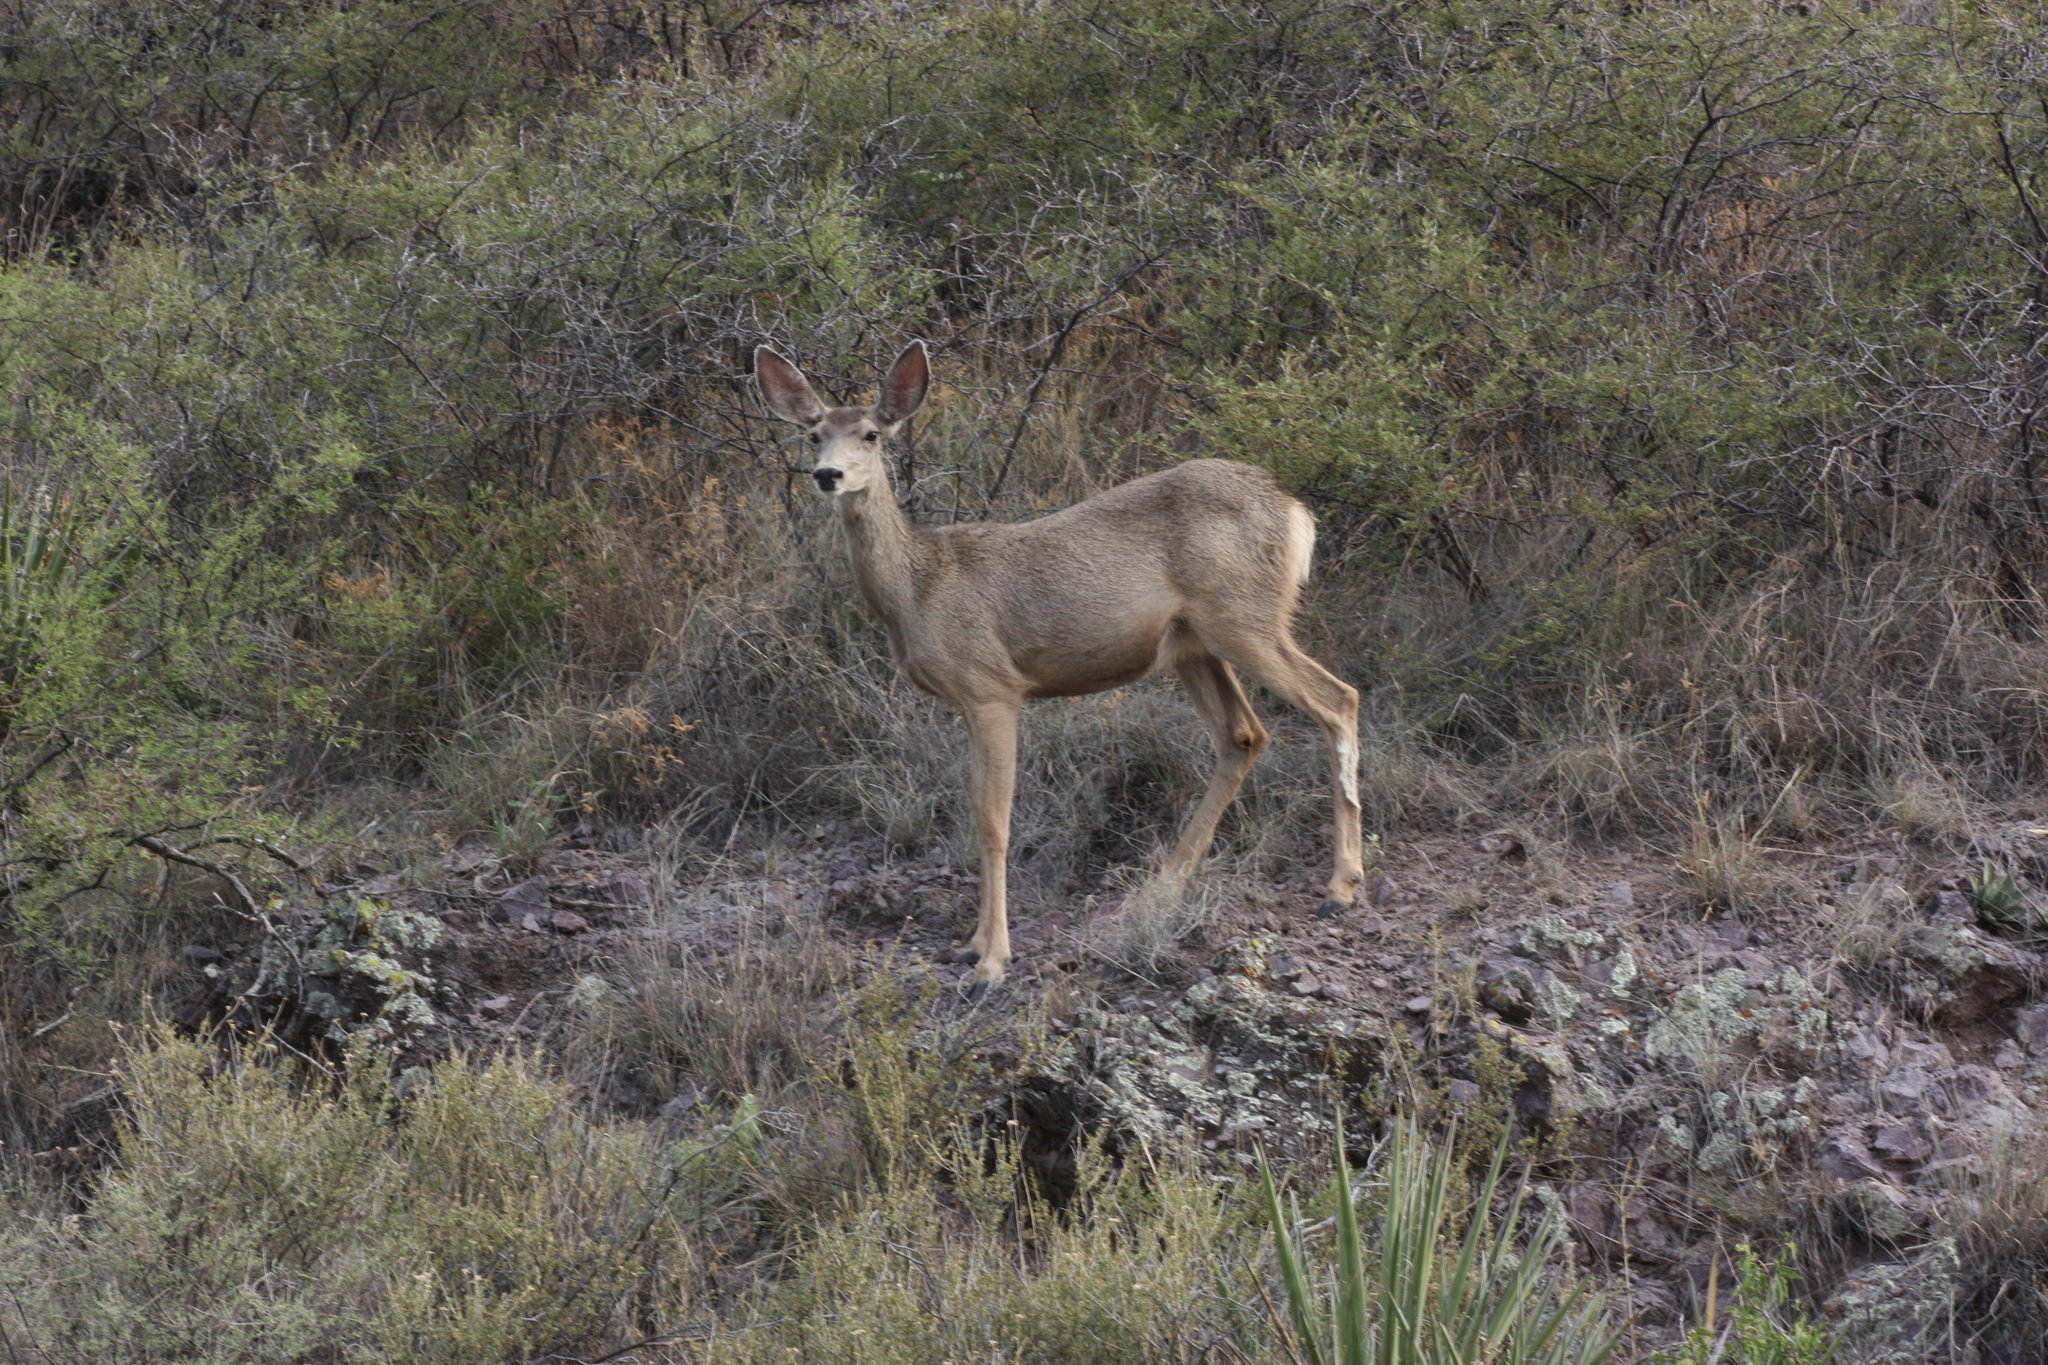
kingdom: Animalia
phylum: Chordata
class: Mammalia
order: Artiodactyla
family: Cervidae
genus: Odocoileus
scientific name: Odocoileus hemionus
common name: Mule deer
